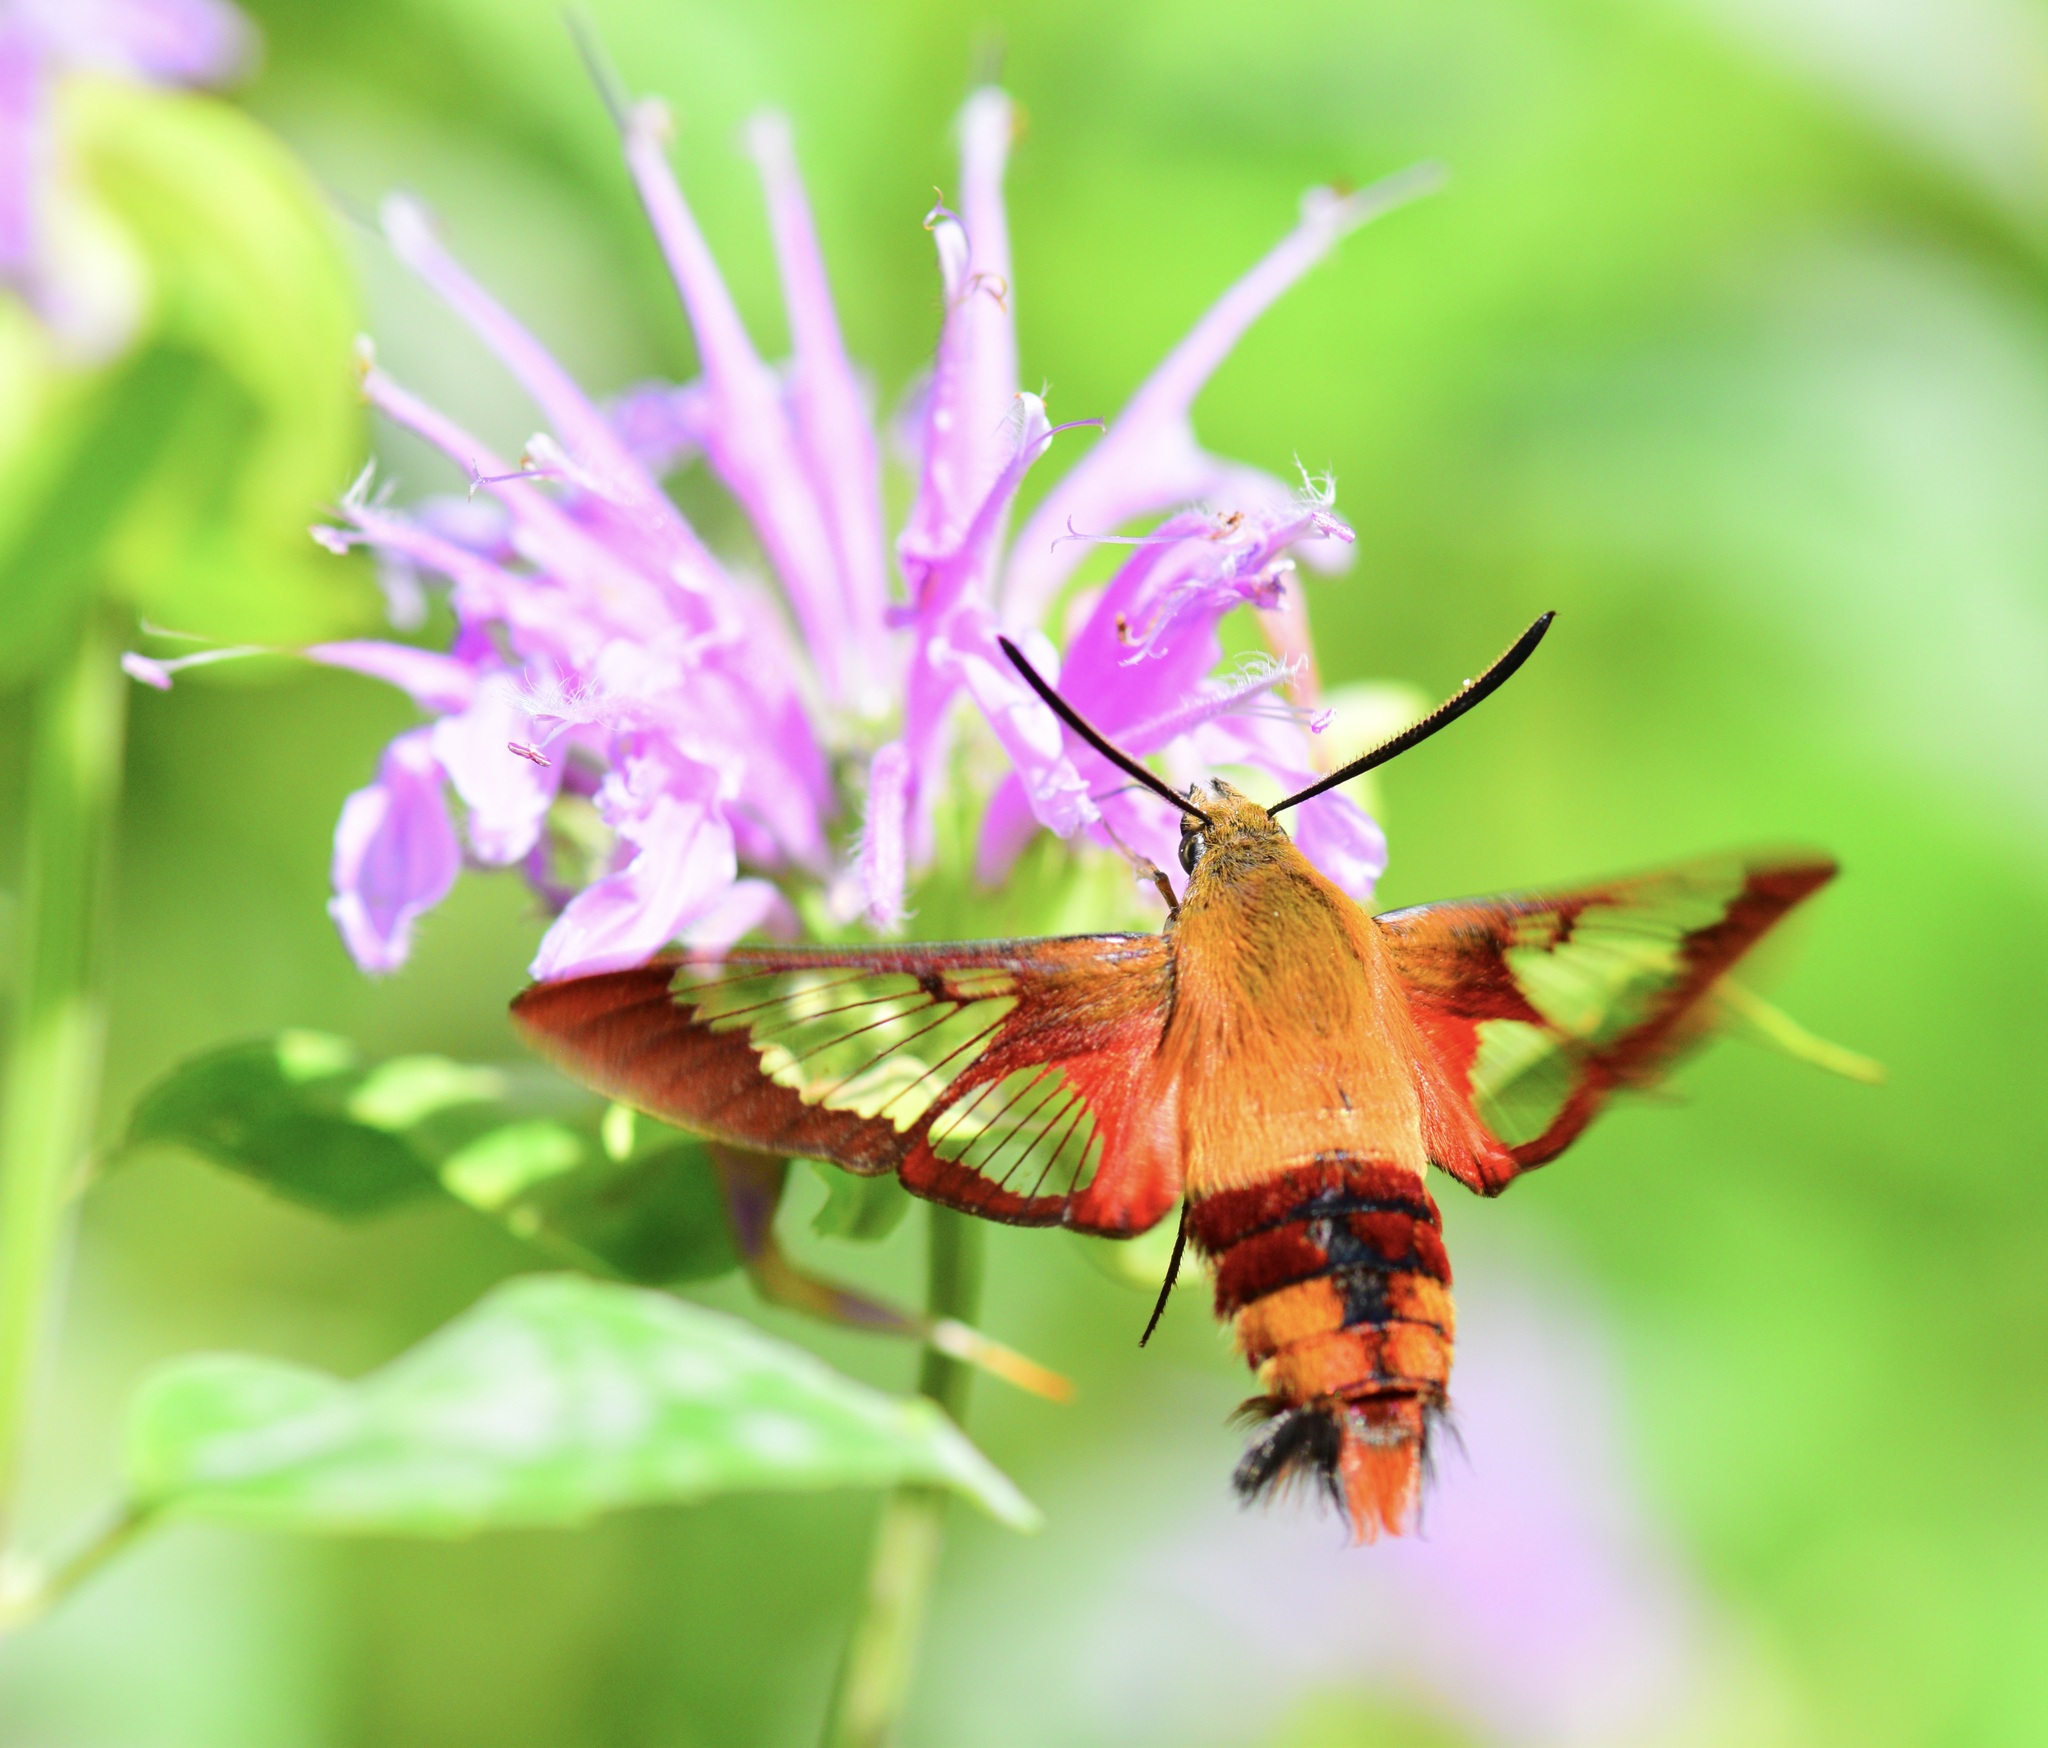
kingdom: Animalia
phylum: Arthropoda
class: Insecta
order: Lepidoptera
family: Sphingidae
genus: Hemaris
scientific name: Hemaris thysbe
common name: Common clear-wing
